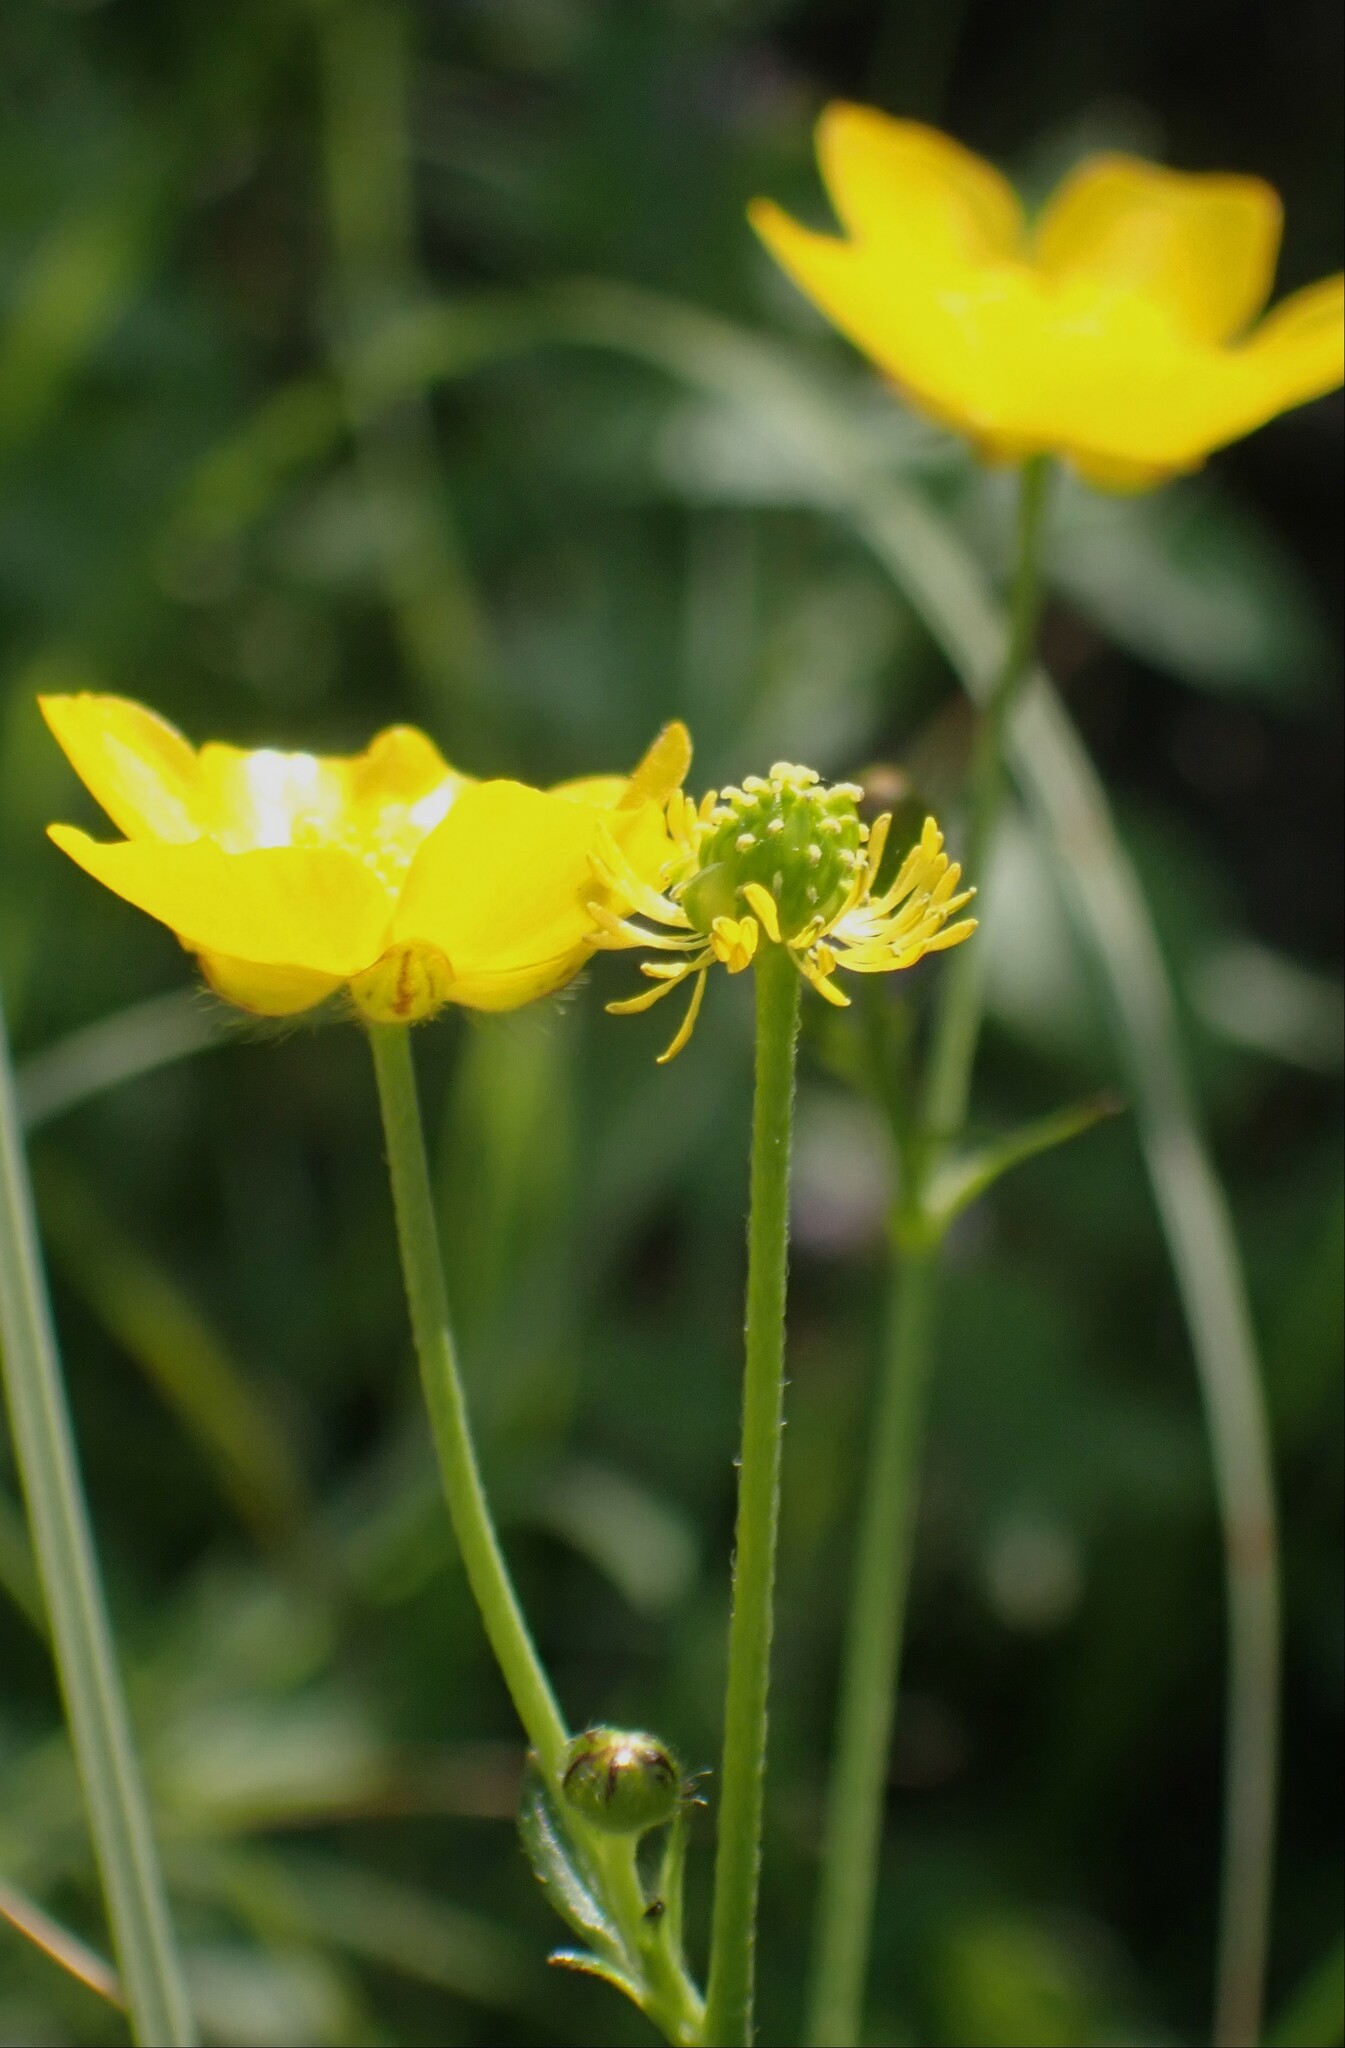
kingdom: Plantae
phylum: Tracheophyta
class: Magnoliopsida
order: Ranunculales
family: Ranunculaceae
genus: Ranunculus
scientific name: Ranunculus acris
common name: Meadow buttercup
